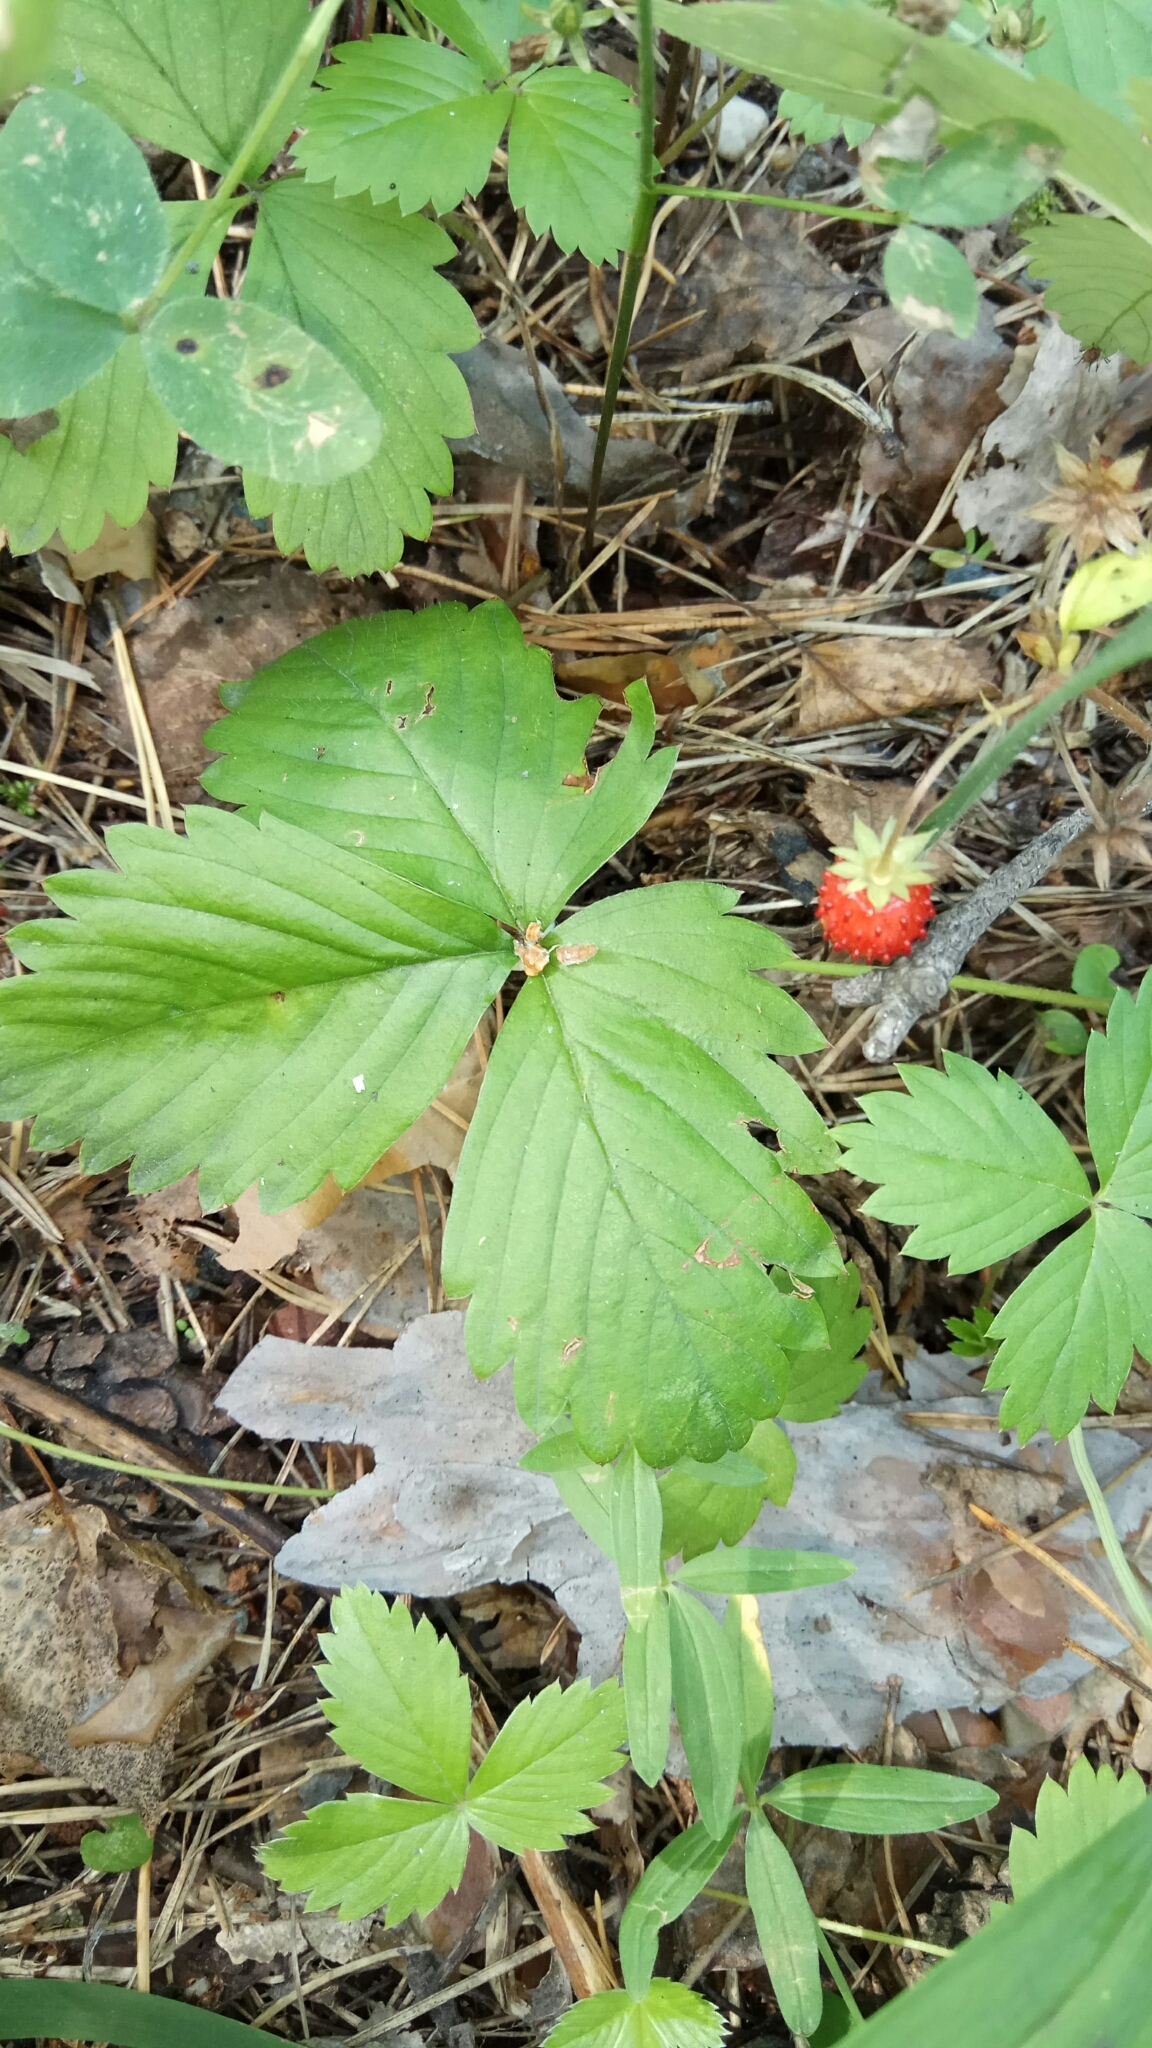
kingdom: Plantae
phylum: Tracheophyta
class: Magnoliopsida
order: Rosales
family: Rosaceae
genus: Fragaria
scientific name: Fragaria vesca
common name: Wild strawberry
